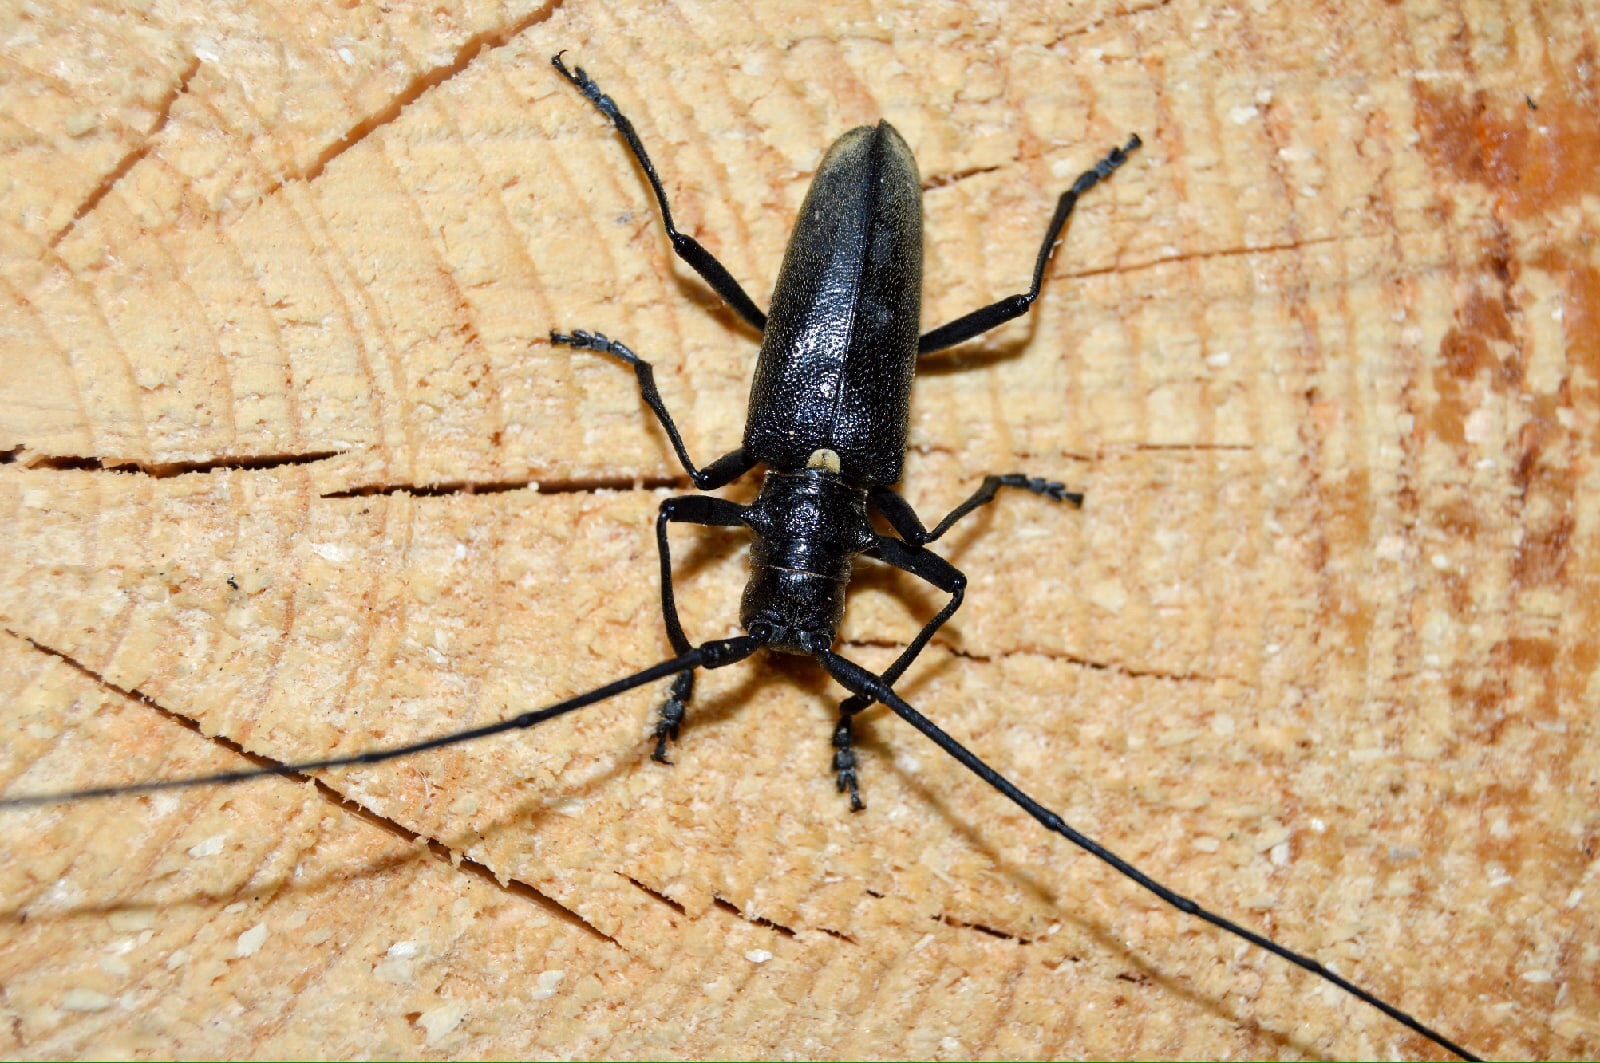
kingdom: Animalia
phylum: Arthropoda
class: Insecta
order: Coleoptera
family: Cerambycidae
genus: Monochamus
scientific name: Monochamus urussovii
